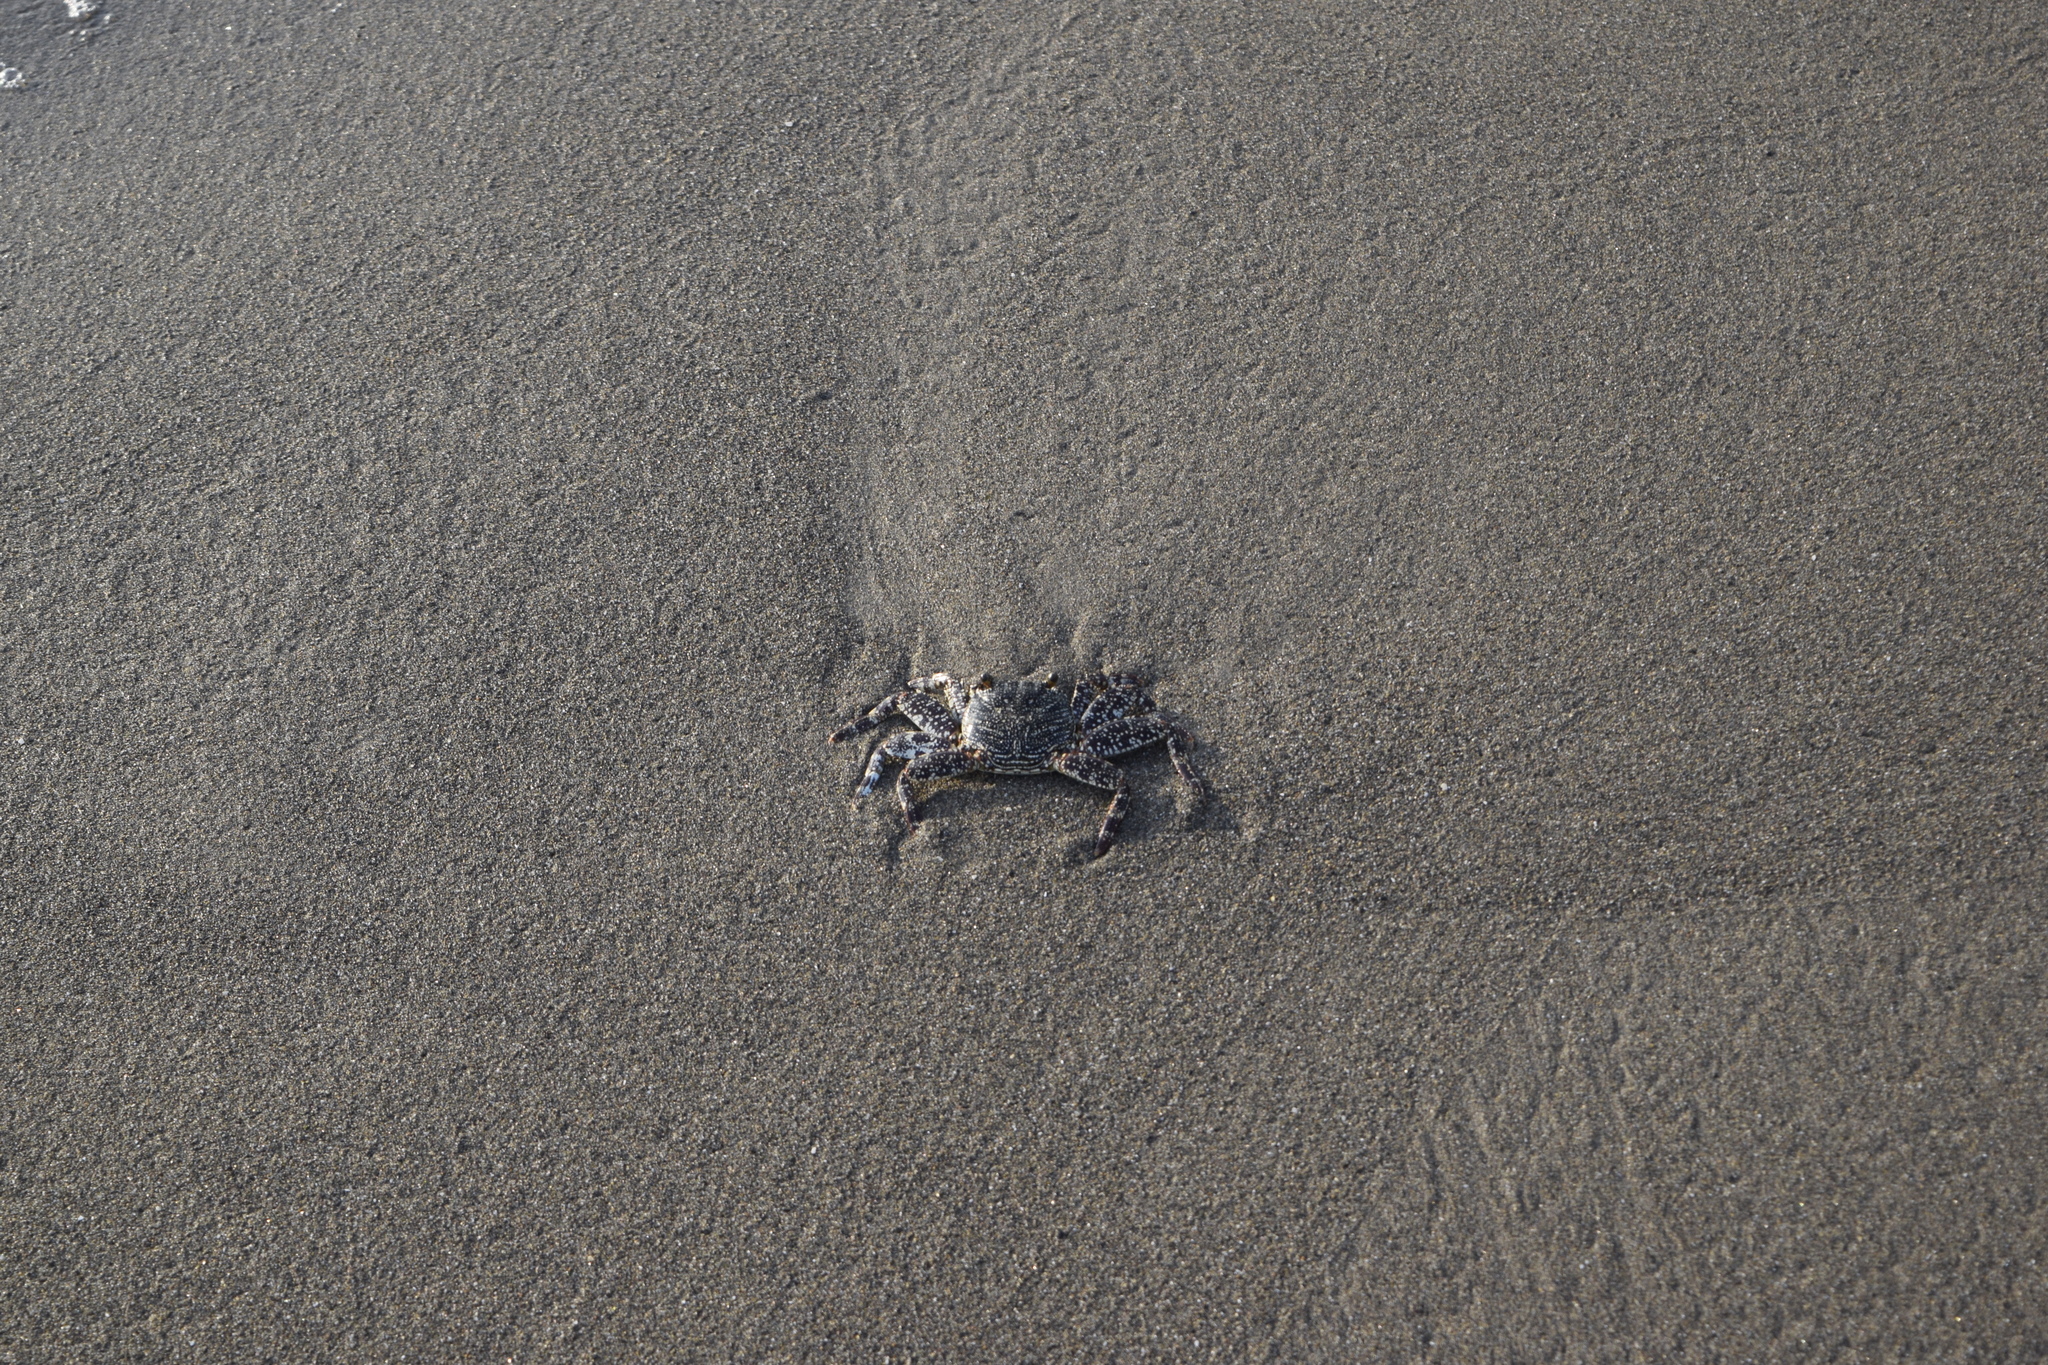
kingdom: Animalia
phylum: Arthropoda
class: Malacostraca
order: Decapoda
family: Grapsidae
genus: Grapsus
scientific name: Grapsus grapsus
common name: Sally lightfoot
